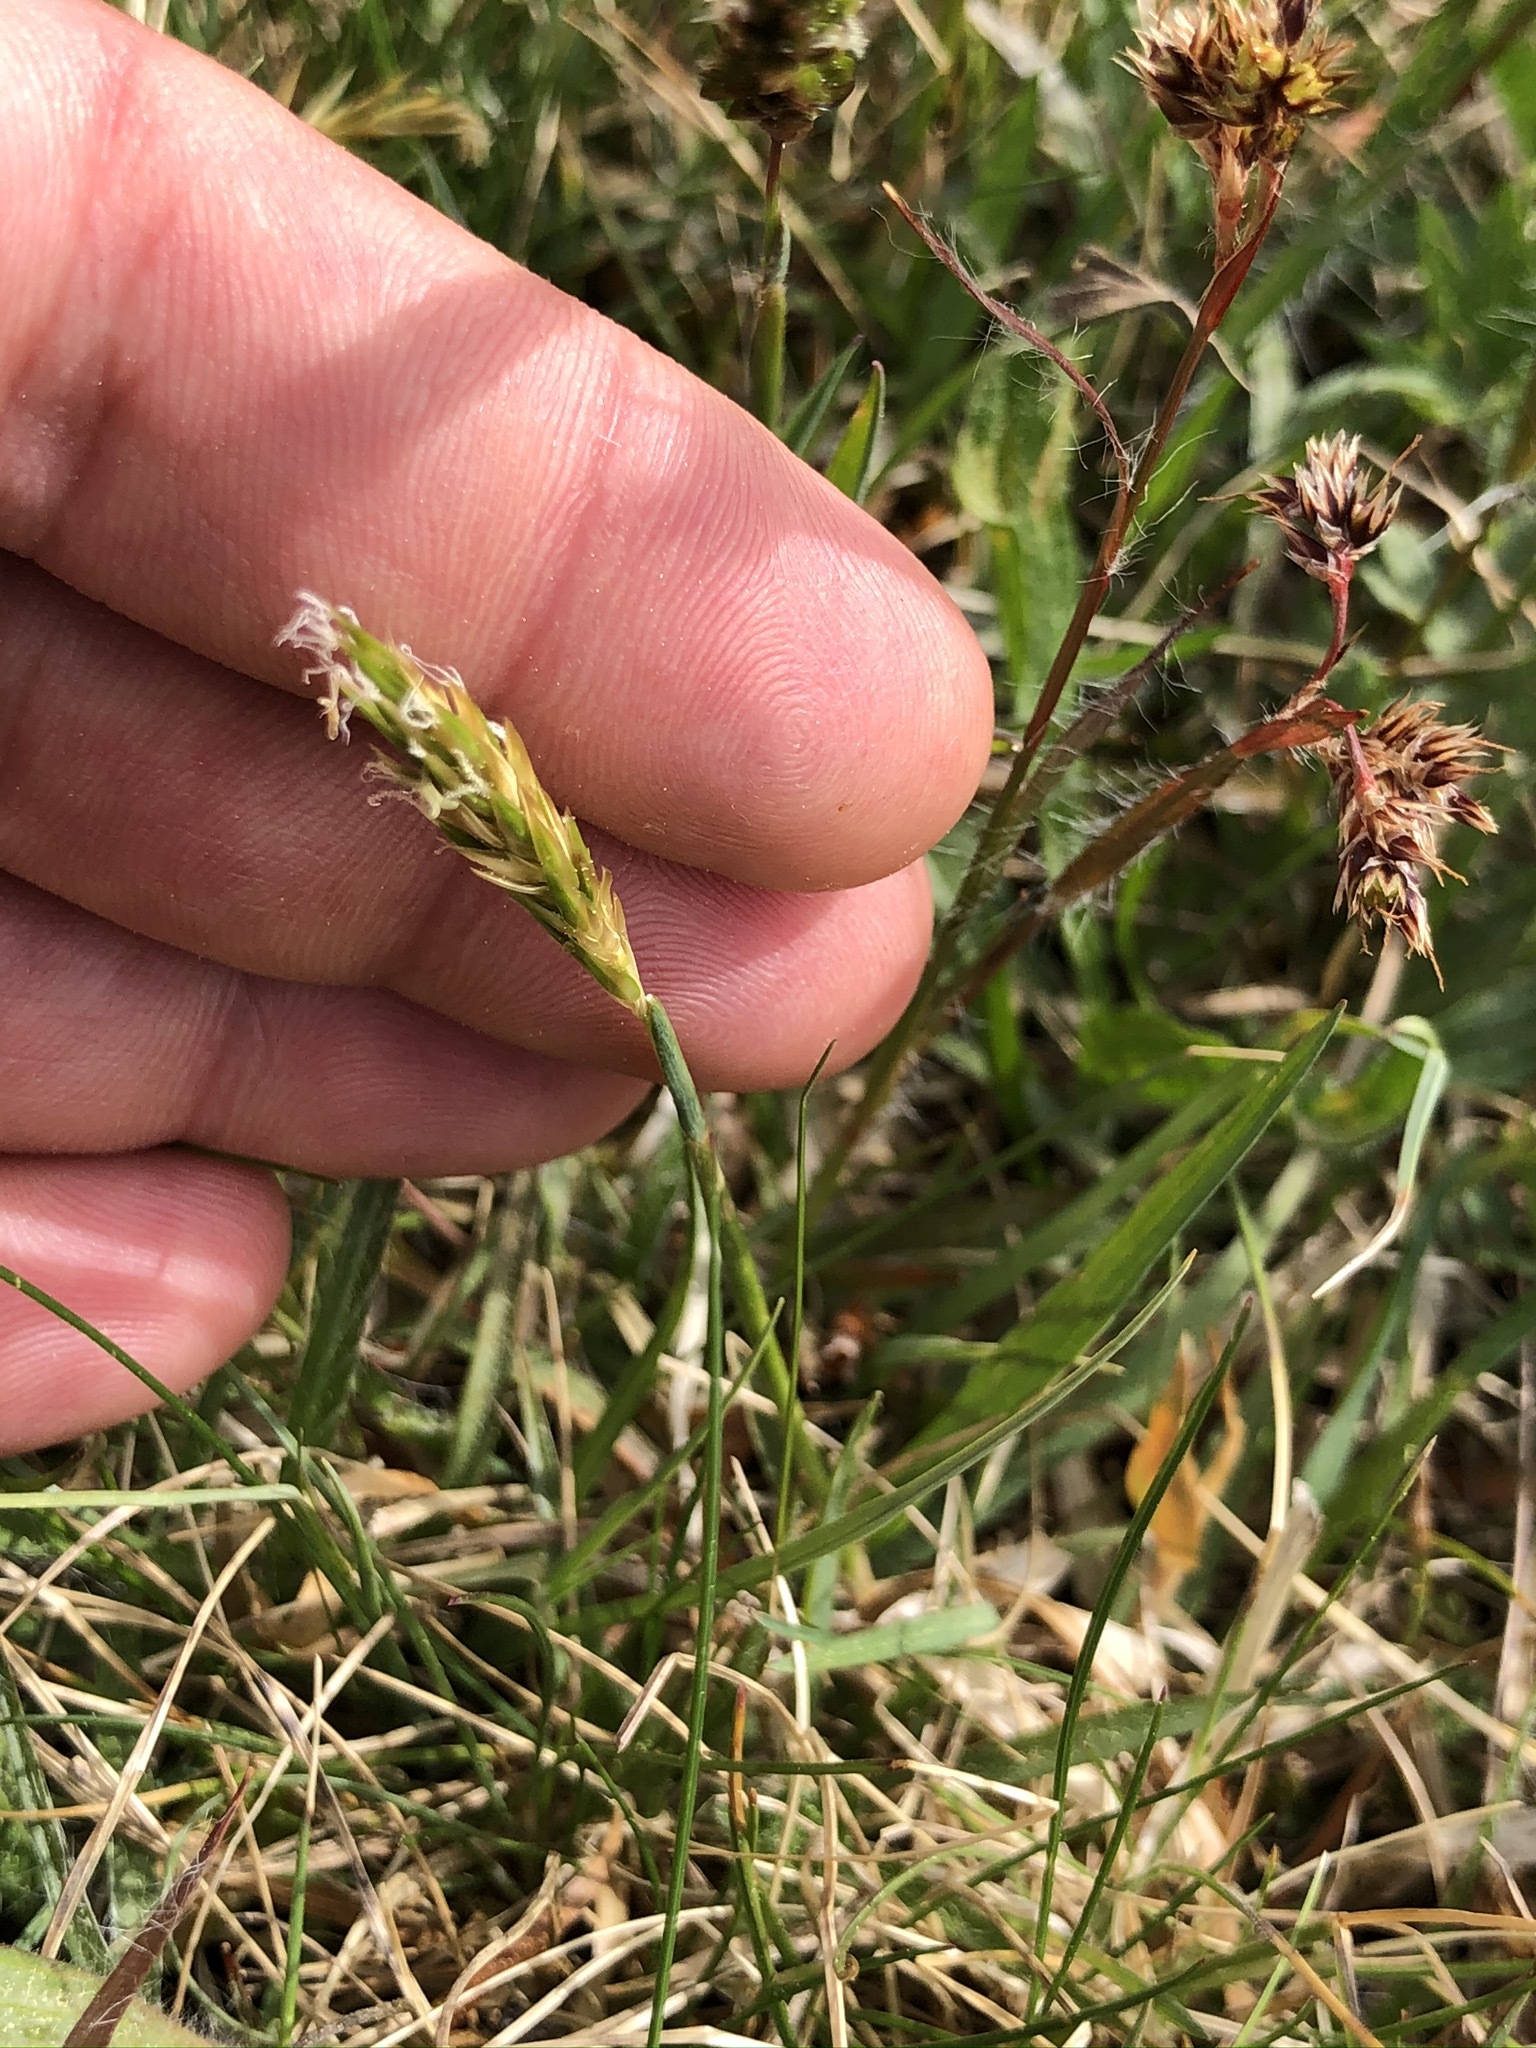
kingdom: Plantae
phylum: Tracheophyta
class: Liliopsida
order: Poales
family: Poaceae
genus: Anthoxanthum
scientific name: Anthoxanthum odoratum
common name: Sweet vernalgrass
